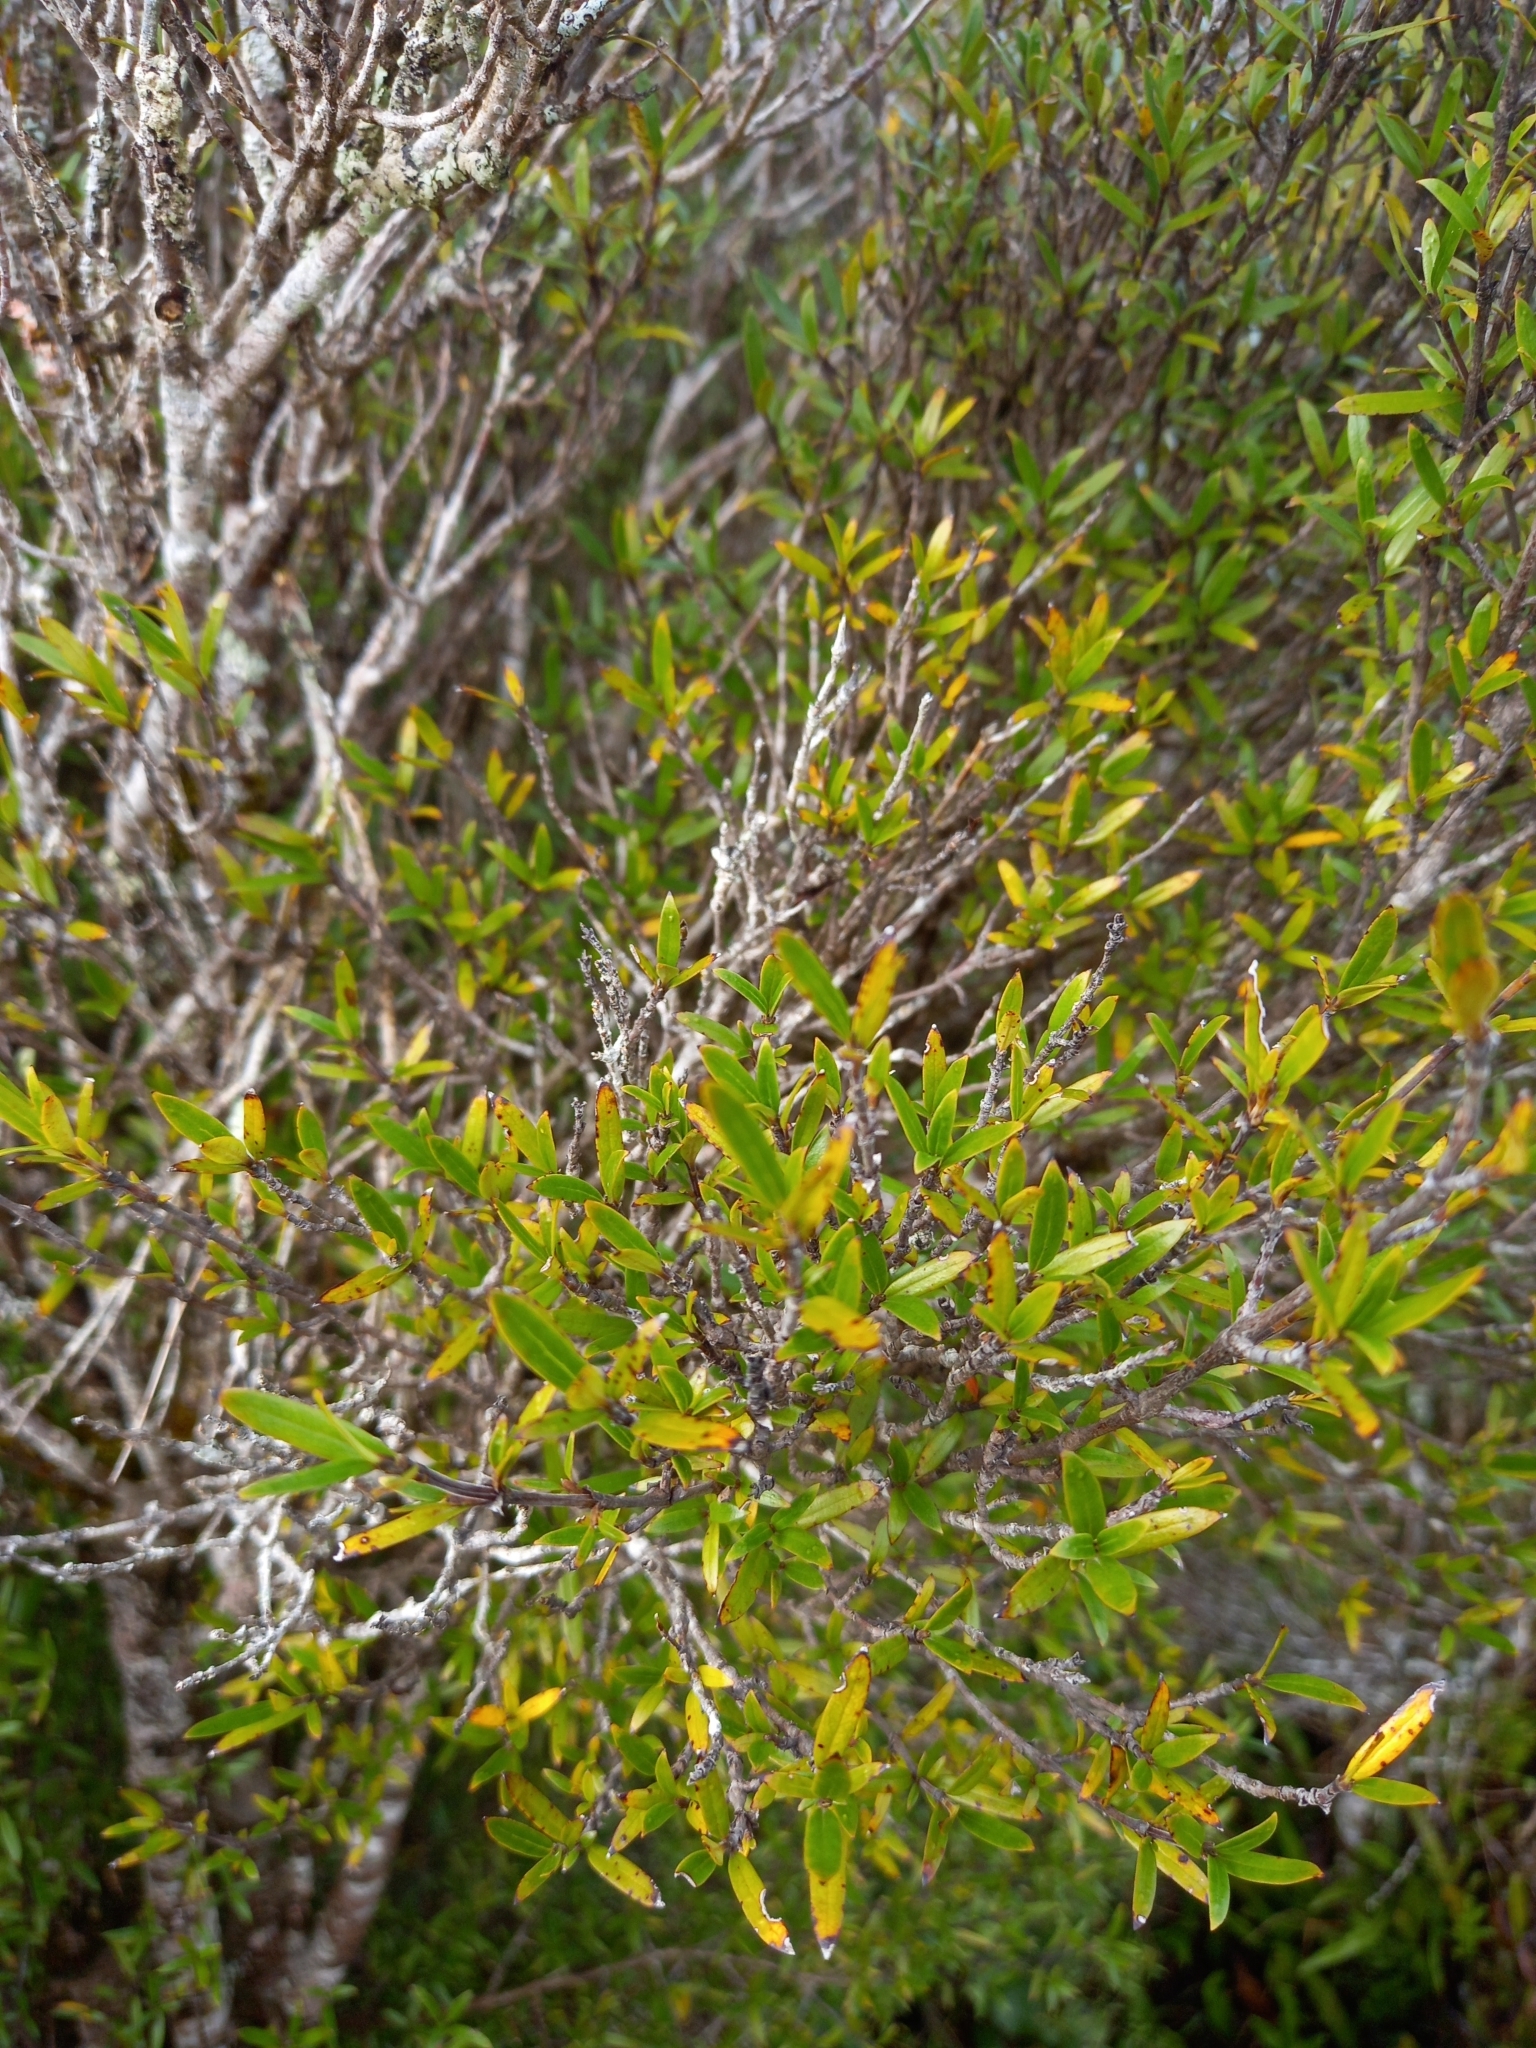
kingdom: Plantae
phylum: Tracheophyta
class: Magnoliopsida
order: Gentianales
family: Rubiaceae
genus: Coprosma
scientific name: Coprosma linariifolia
